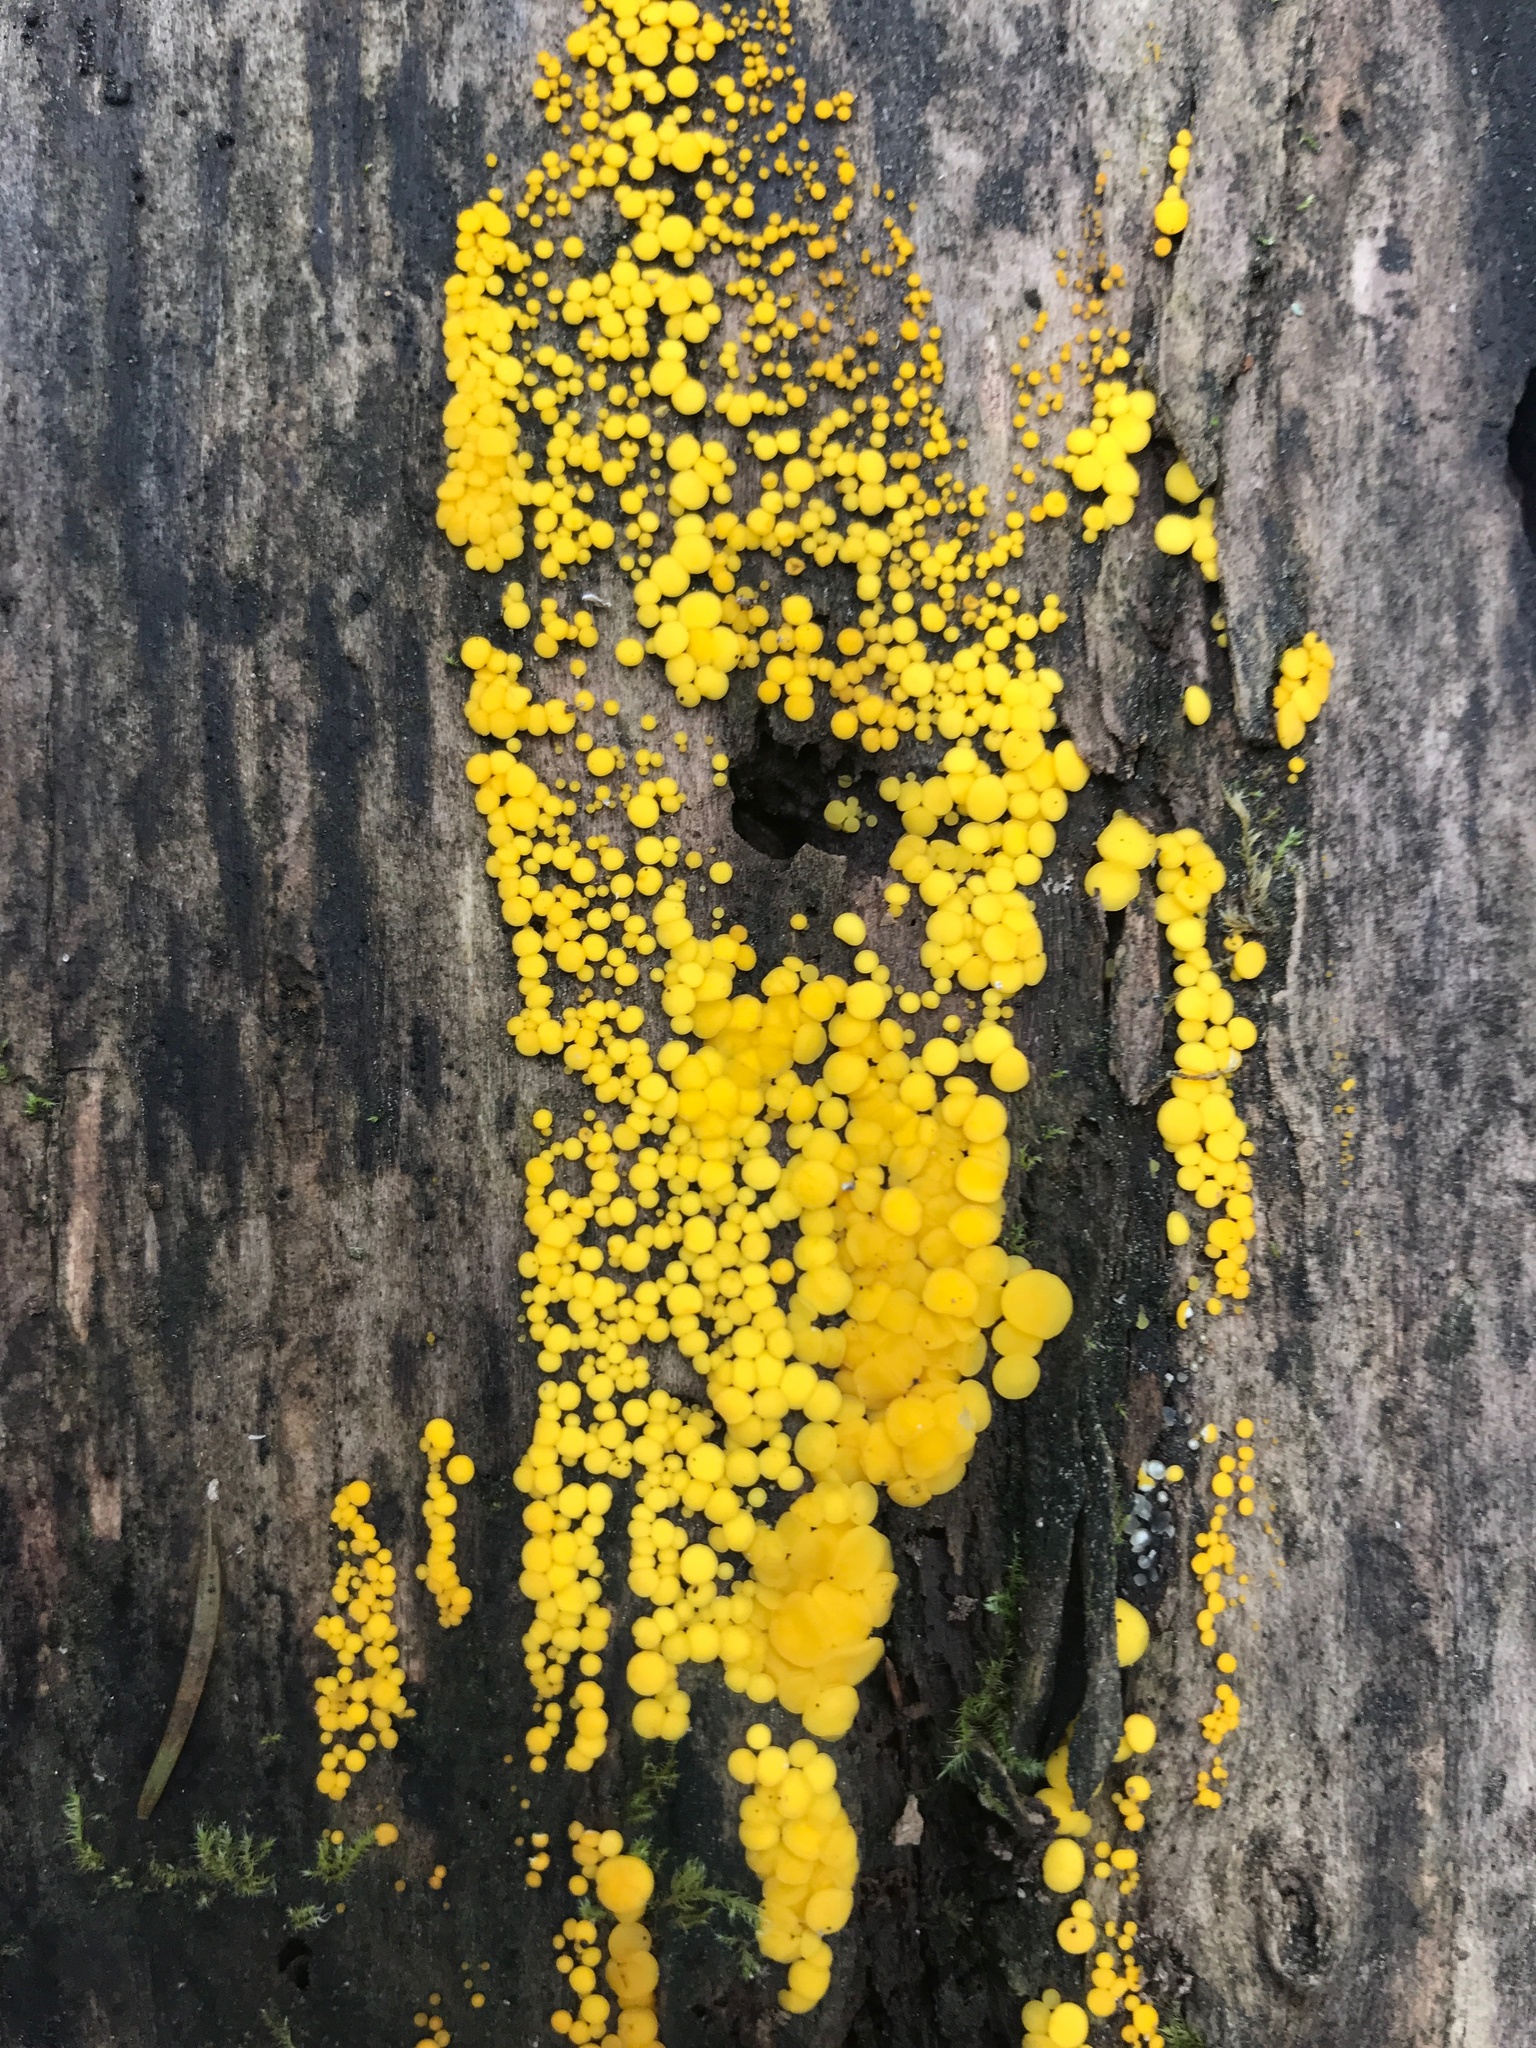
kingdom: Fungi
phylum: Ascomycota
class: Leotiomycetes
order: Helotiales
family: Pezizellaceae
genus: Calycina
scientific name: Calycina citrina
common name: Yellow fairy cups
